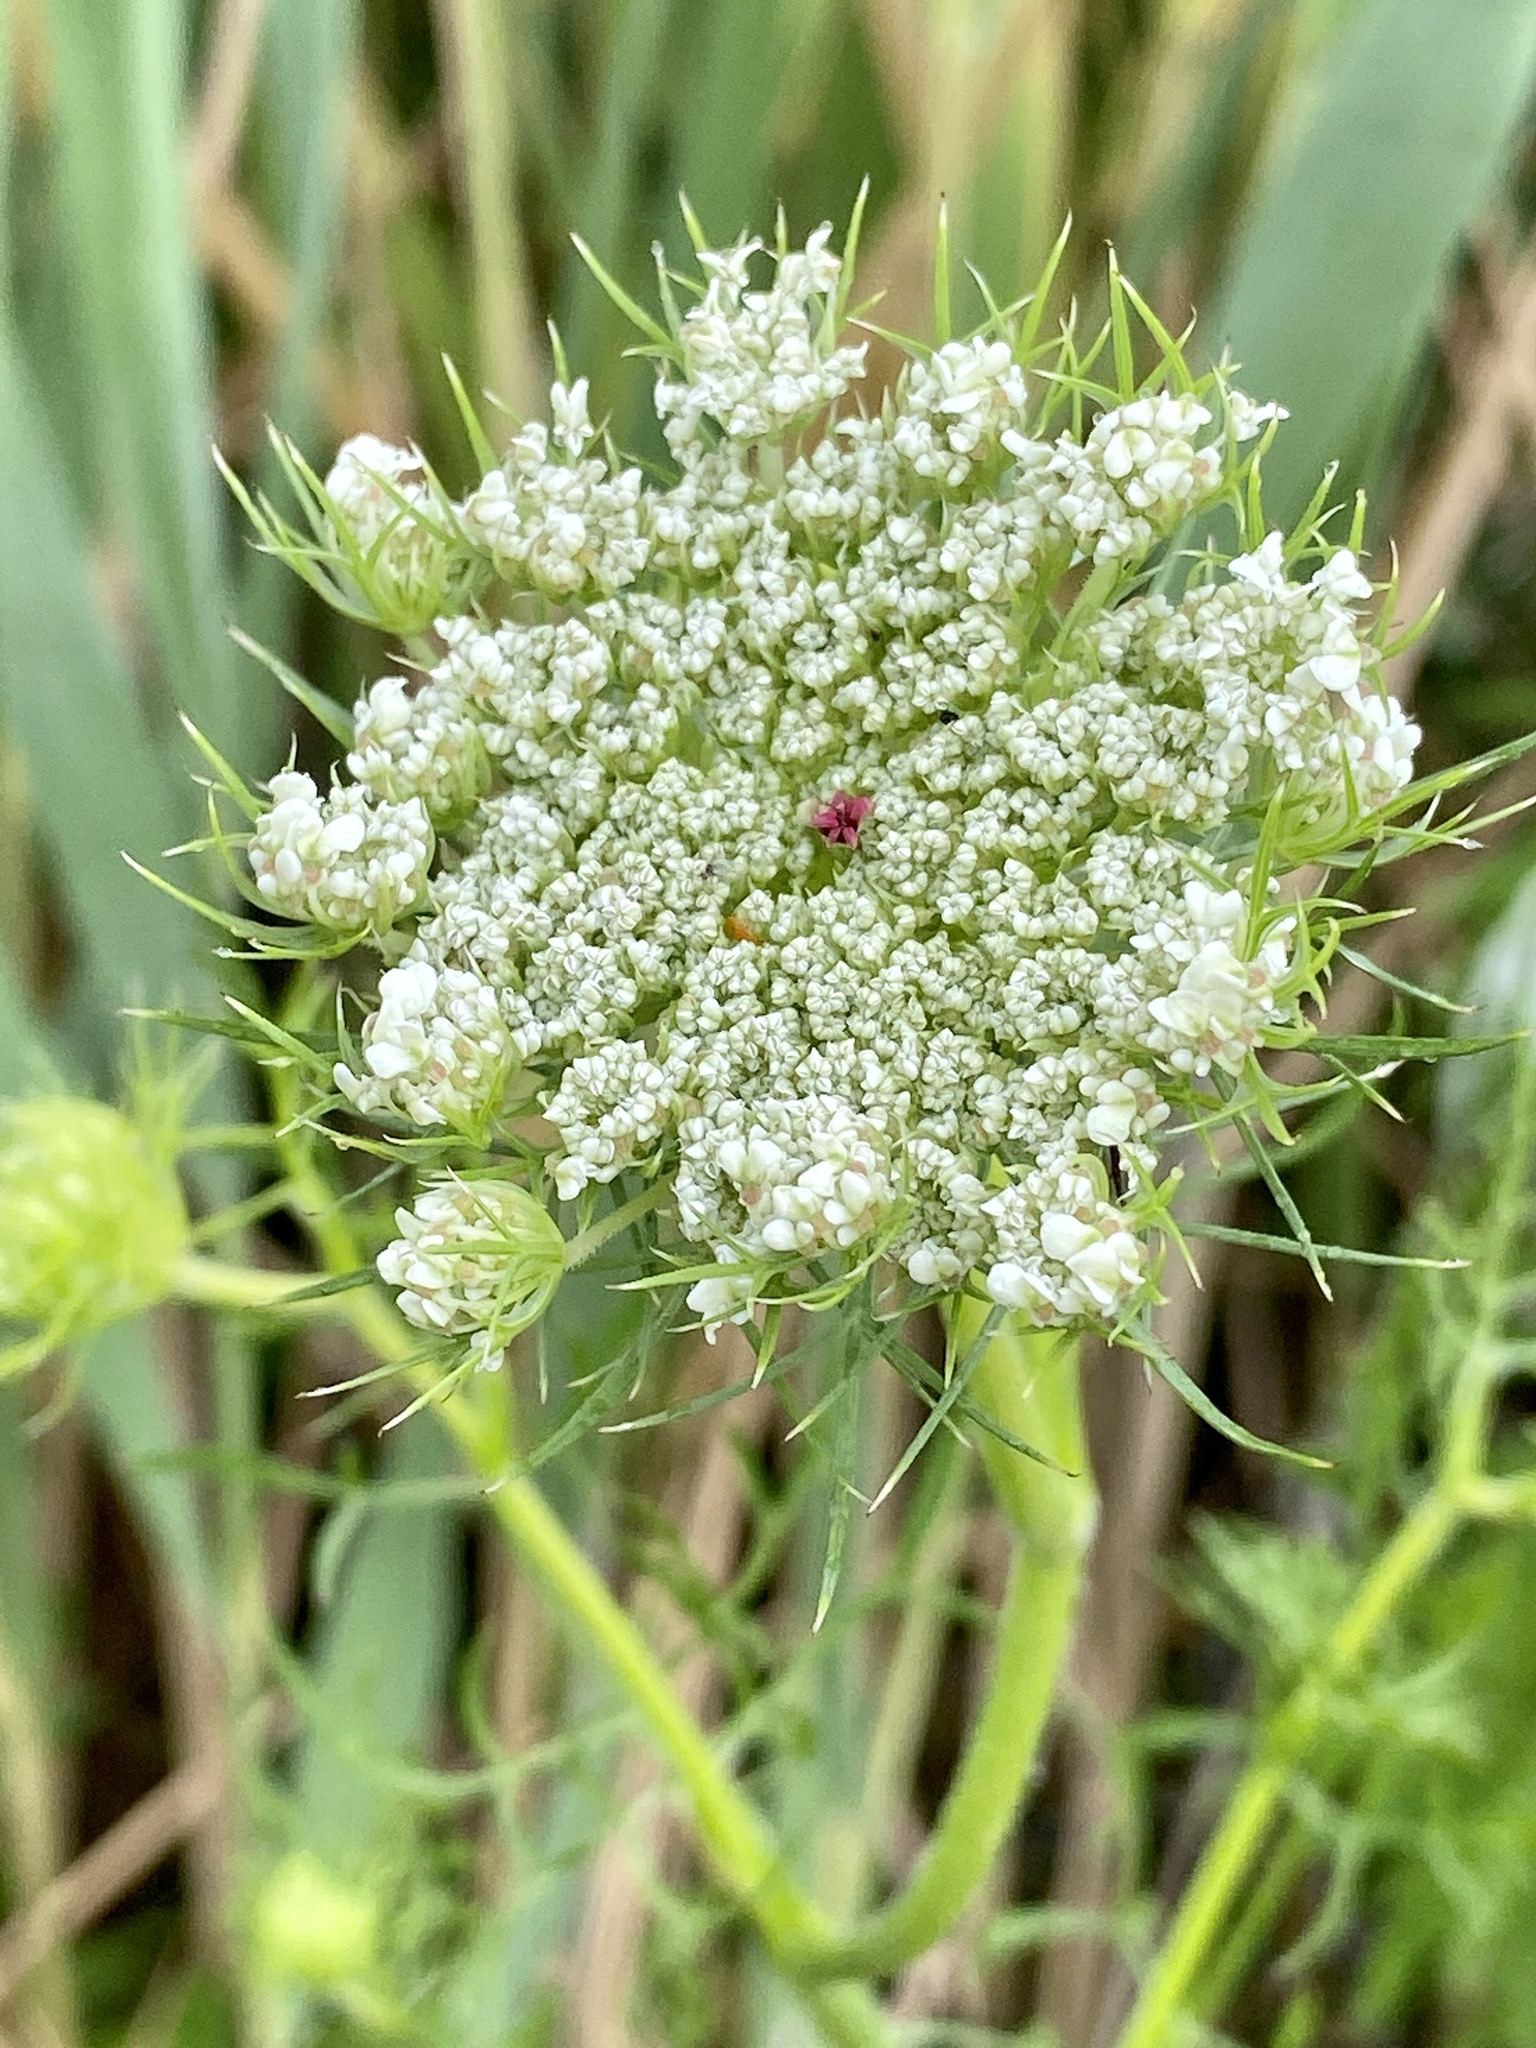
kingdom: Plantae
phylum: Tracheophyta
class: Magnoliopsida
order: Apiales
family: Apiaceae
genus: Daucus
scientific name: Daucus carota
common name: Wild carrot
